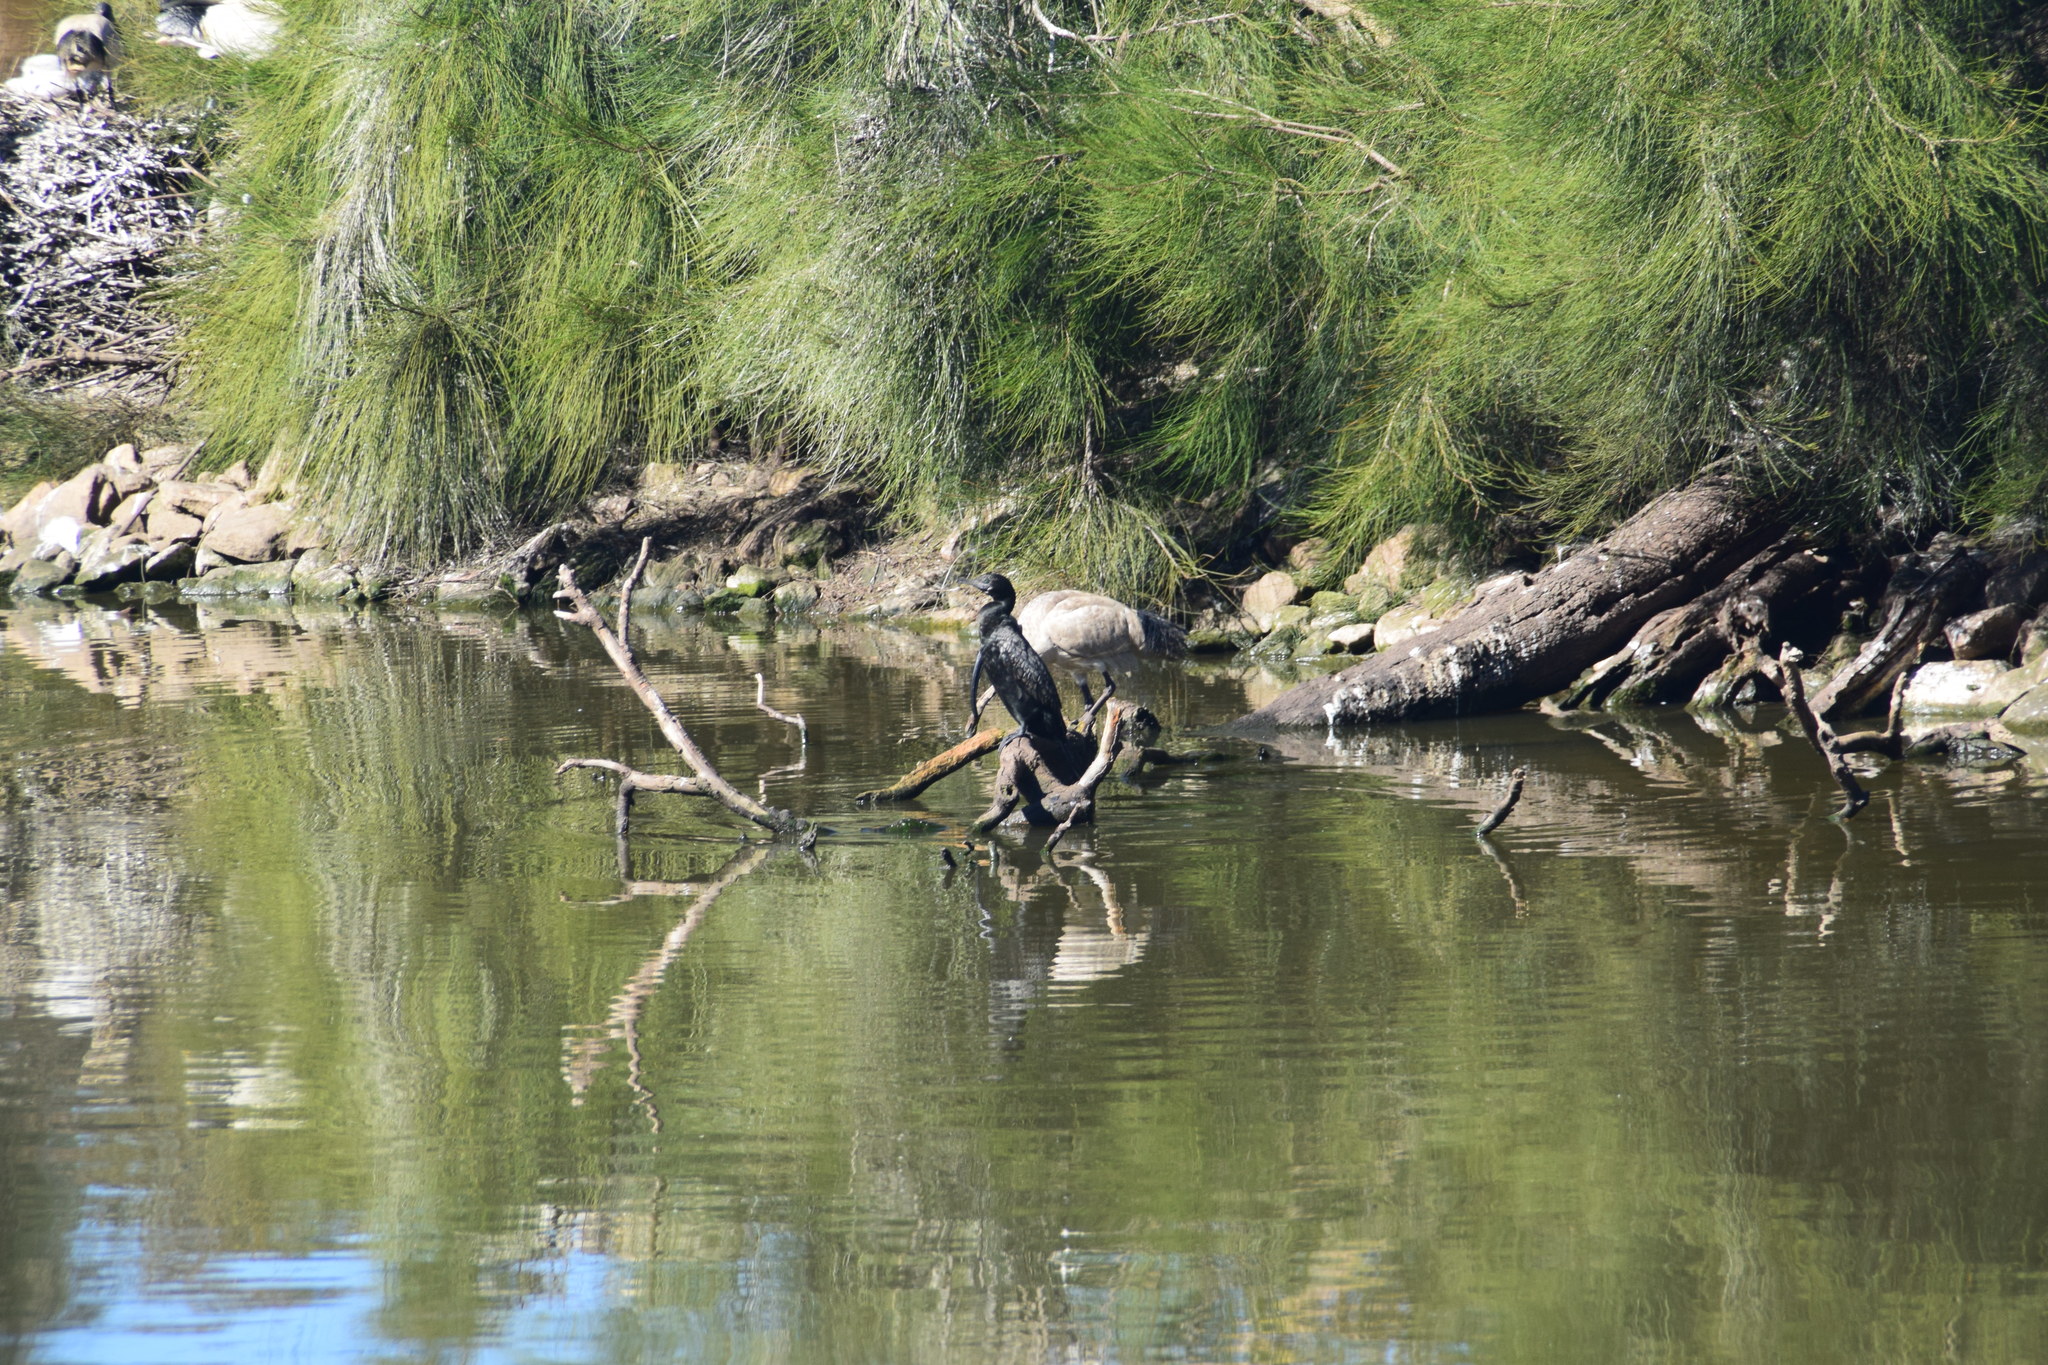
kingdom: Animalia
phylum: Chordata
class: Aves
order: Suliformes
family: Phalacrocoracidae
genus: Phalacrocorax
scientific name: Phalacrocorax sulcirostris
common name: Little black cormorant
